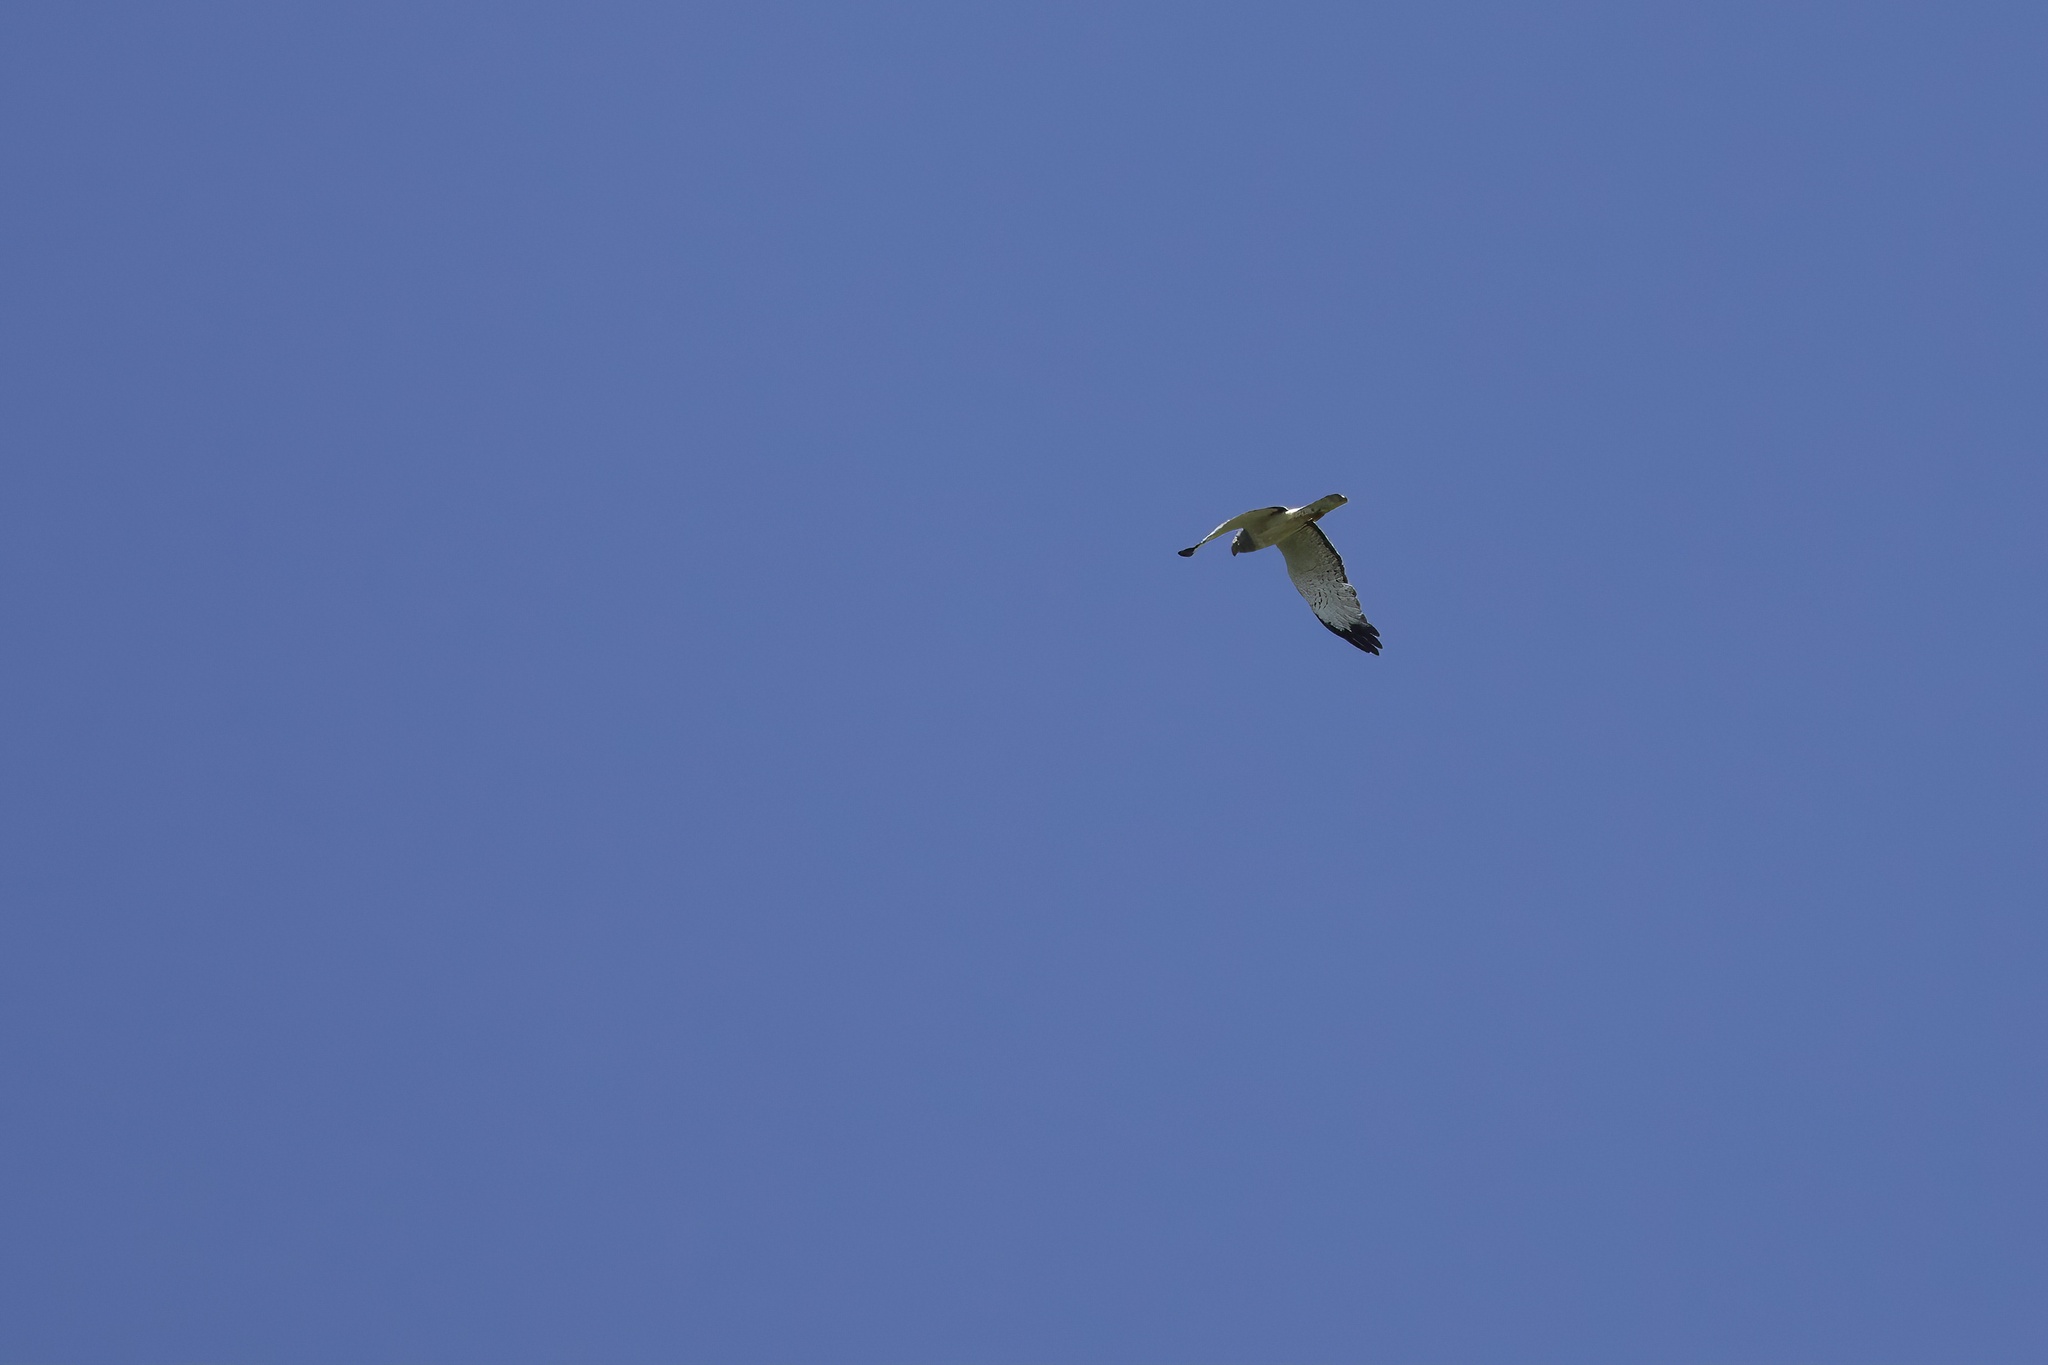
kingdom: Animalia
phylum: Chordata
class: Aves
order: Accipitriformes
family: Accipitridae
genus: Circus
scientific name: Circus cyaneus
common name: Hen harrier
